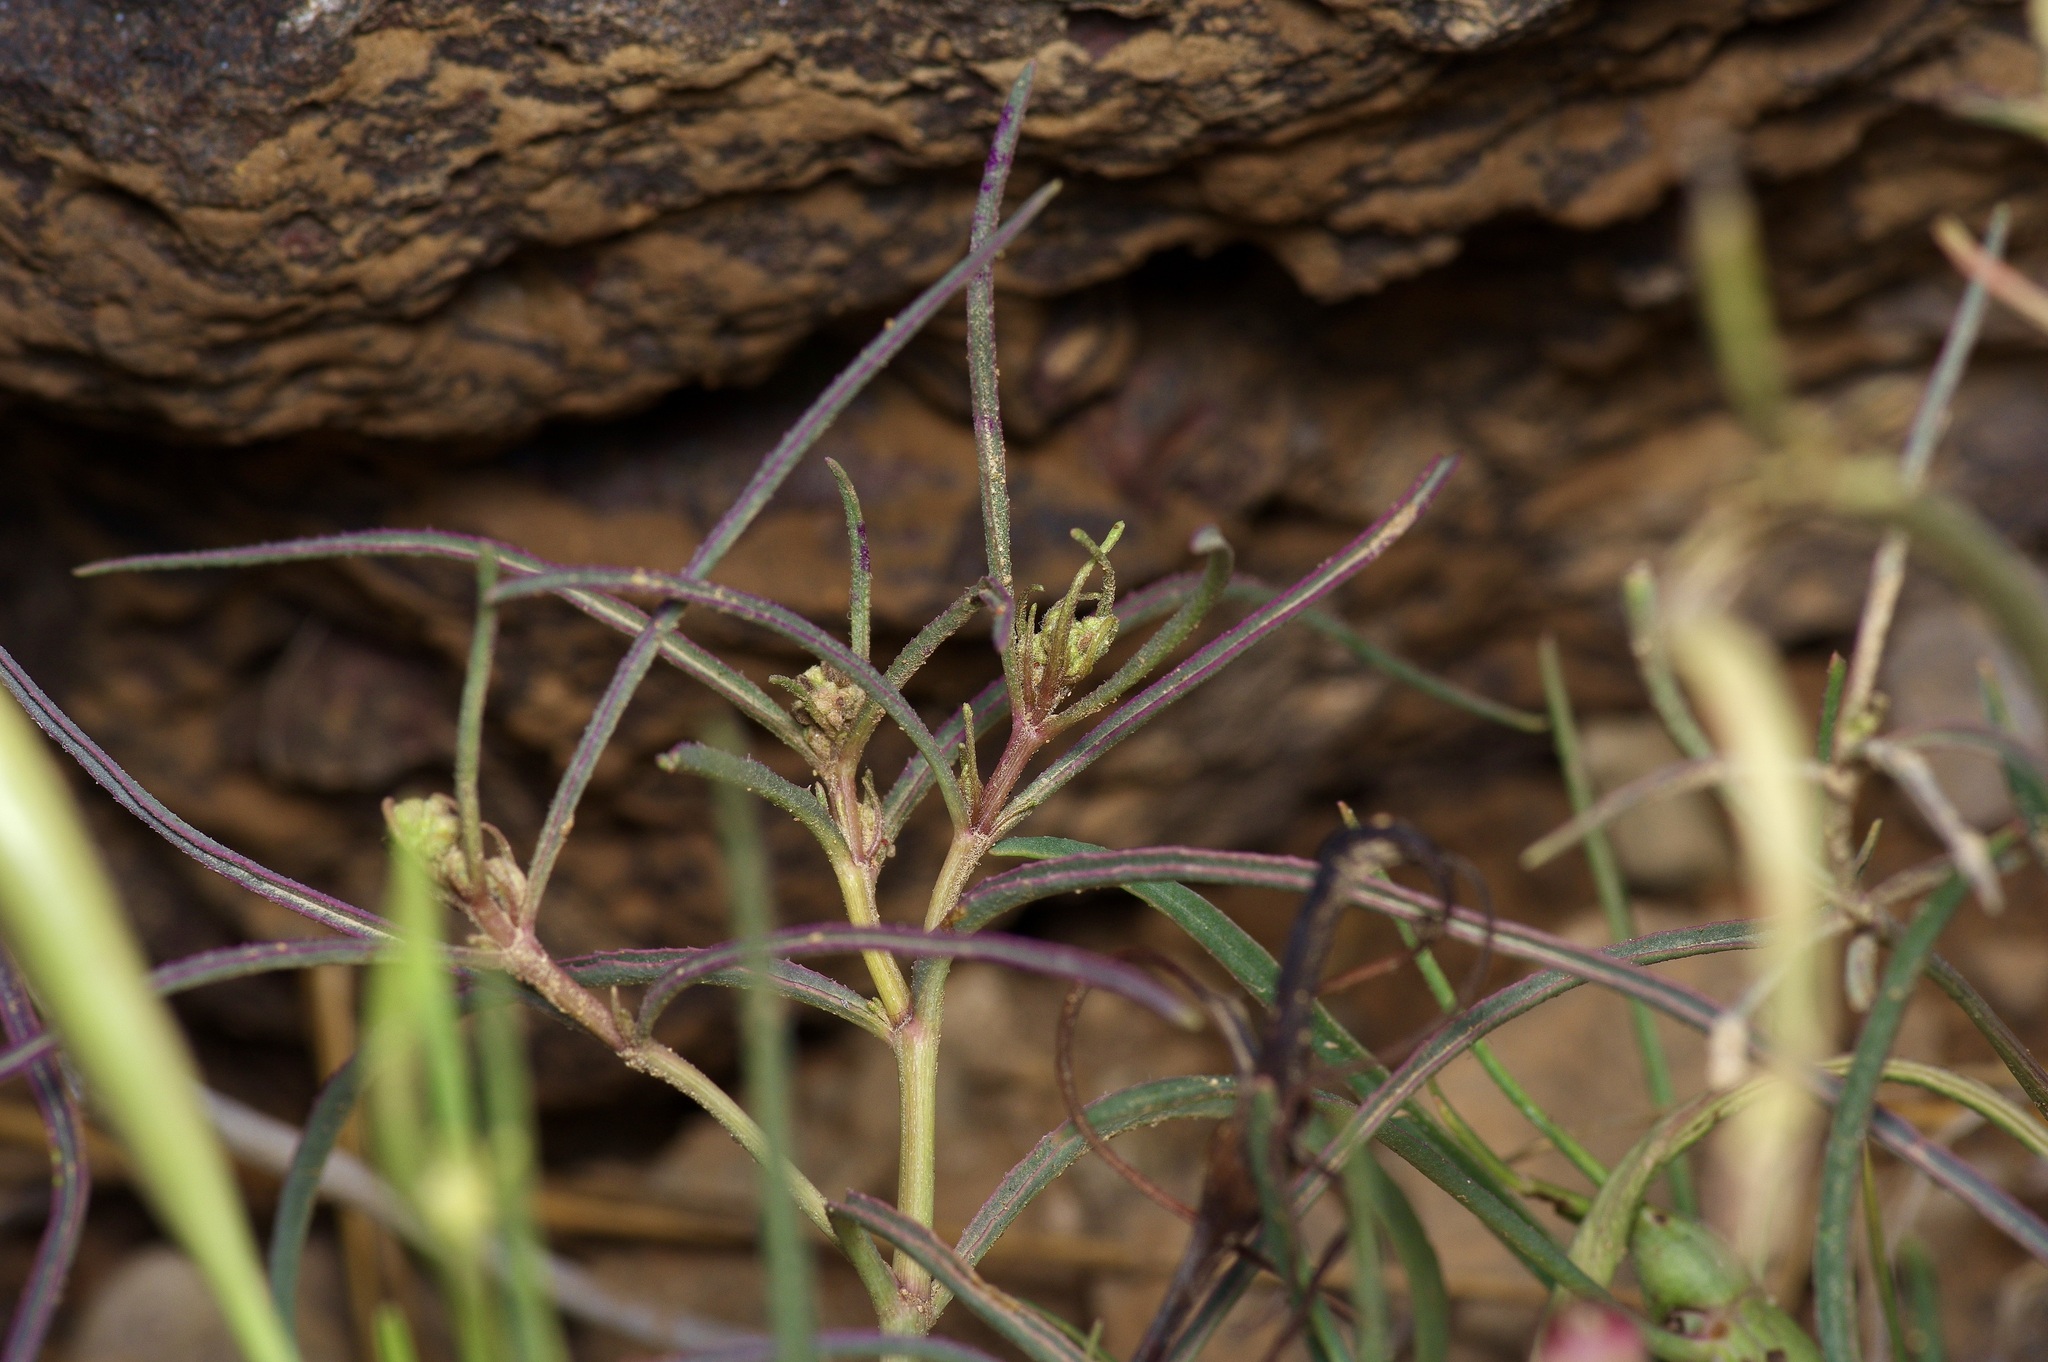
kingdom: Plantae
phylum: Tracheophyta
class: Magnoliopsida
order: Caryophyllales
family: Nyctaginaceae
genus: Mirabilis
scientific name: Mirabilis linearis
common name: Linear-leaved four-o'clock
